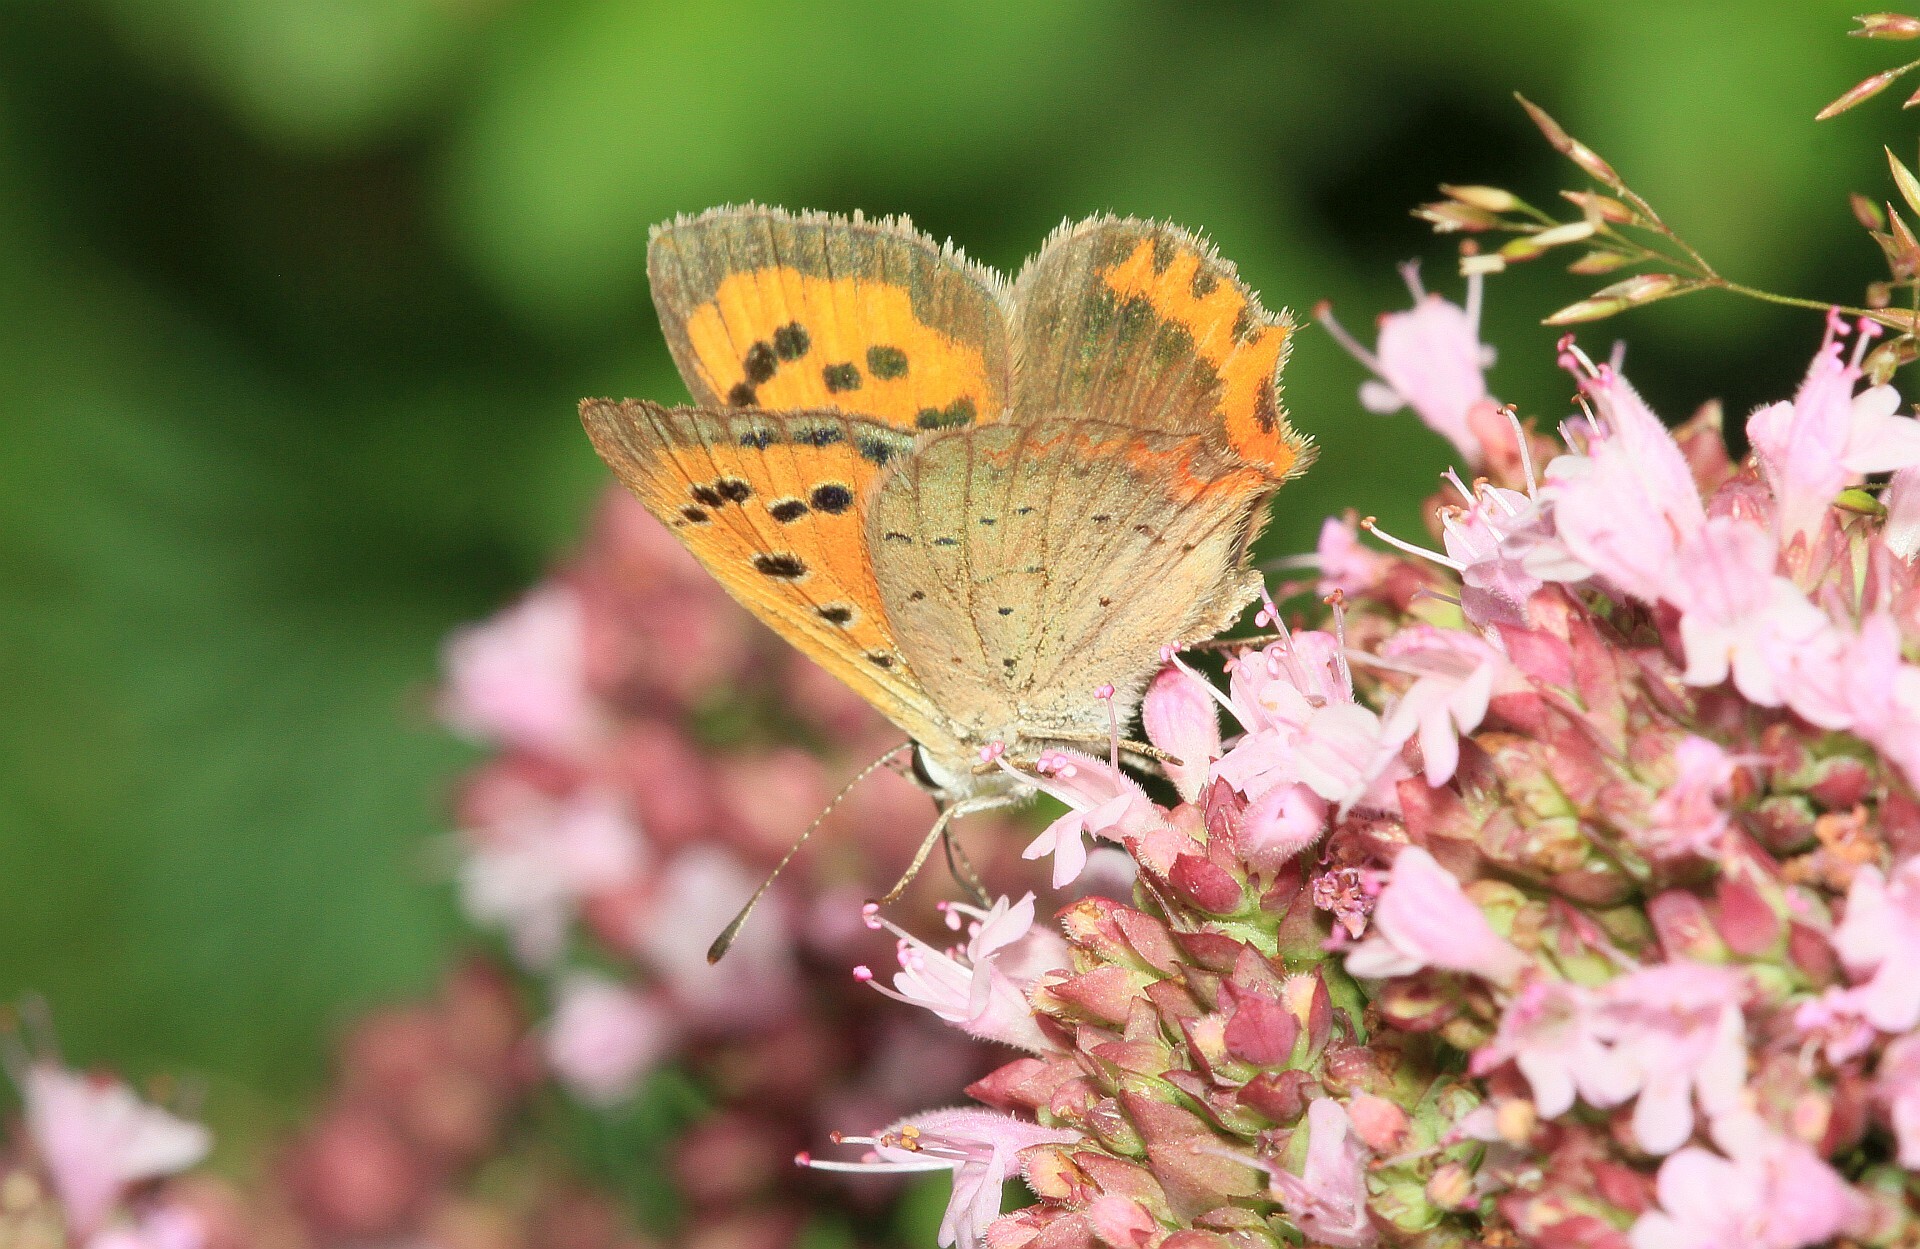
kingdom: Animalia
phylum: Arthropoda
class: Insecta
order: Lepidoptera
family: Lycaenidae
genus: Lycaena
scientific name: Lycaena phlaeas
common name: Small copper
